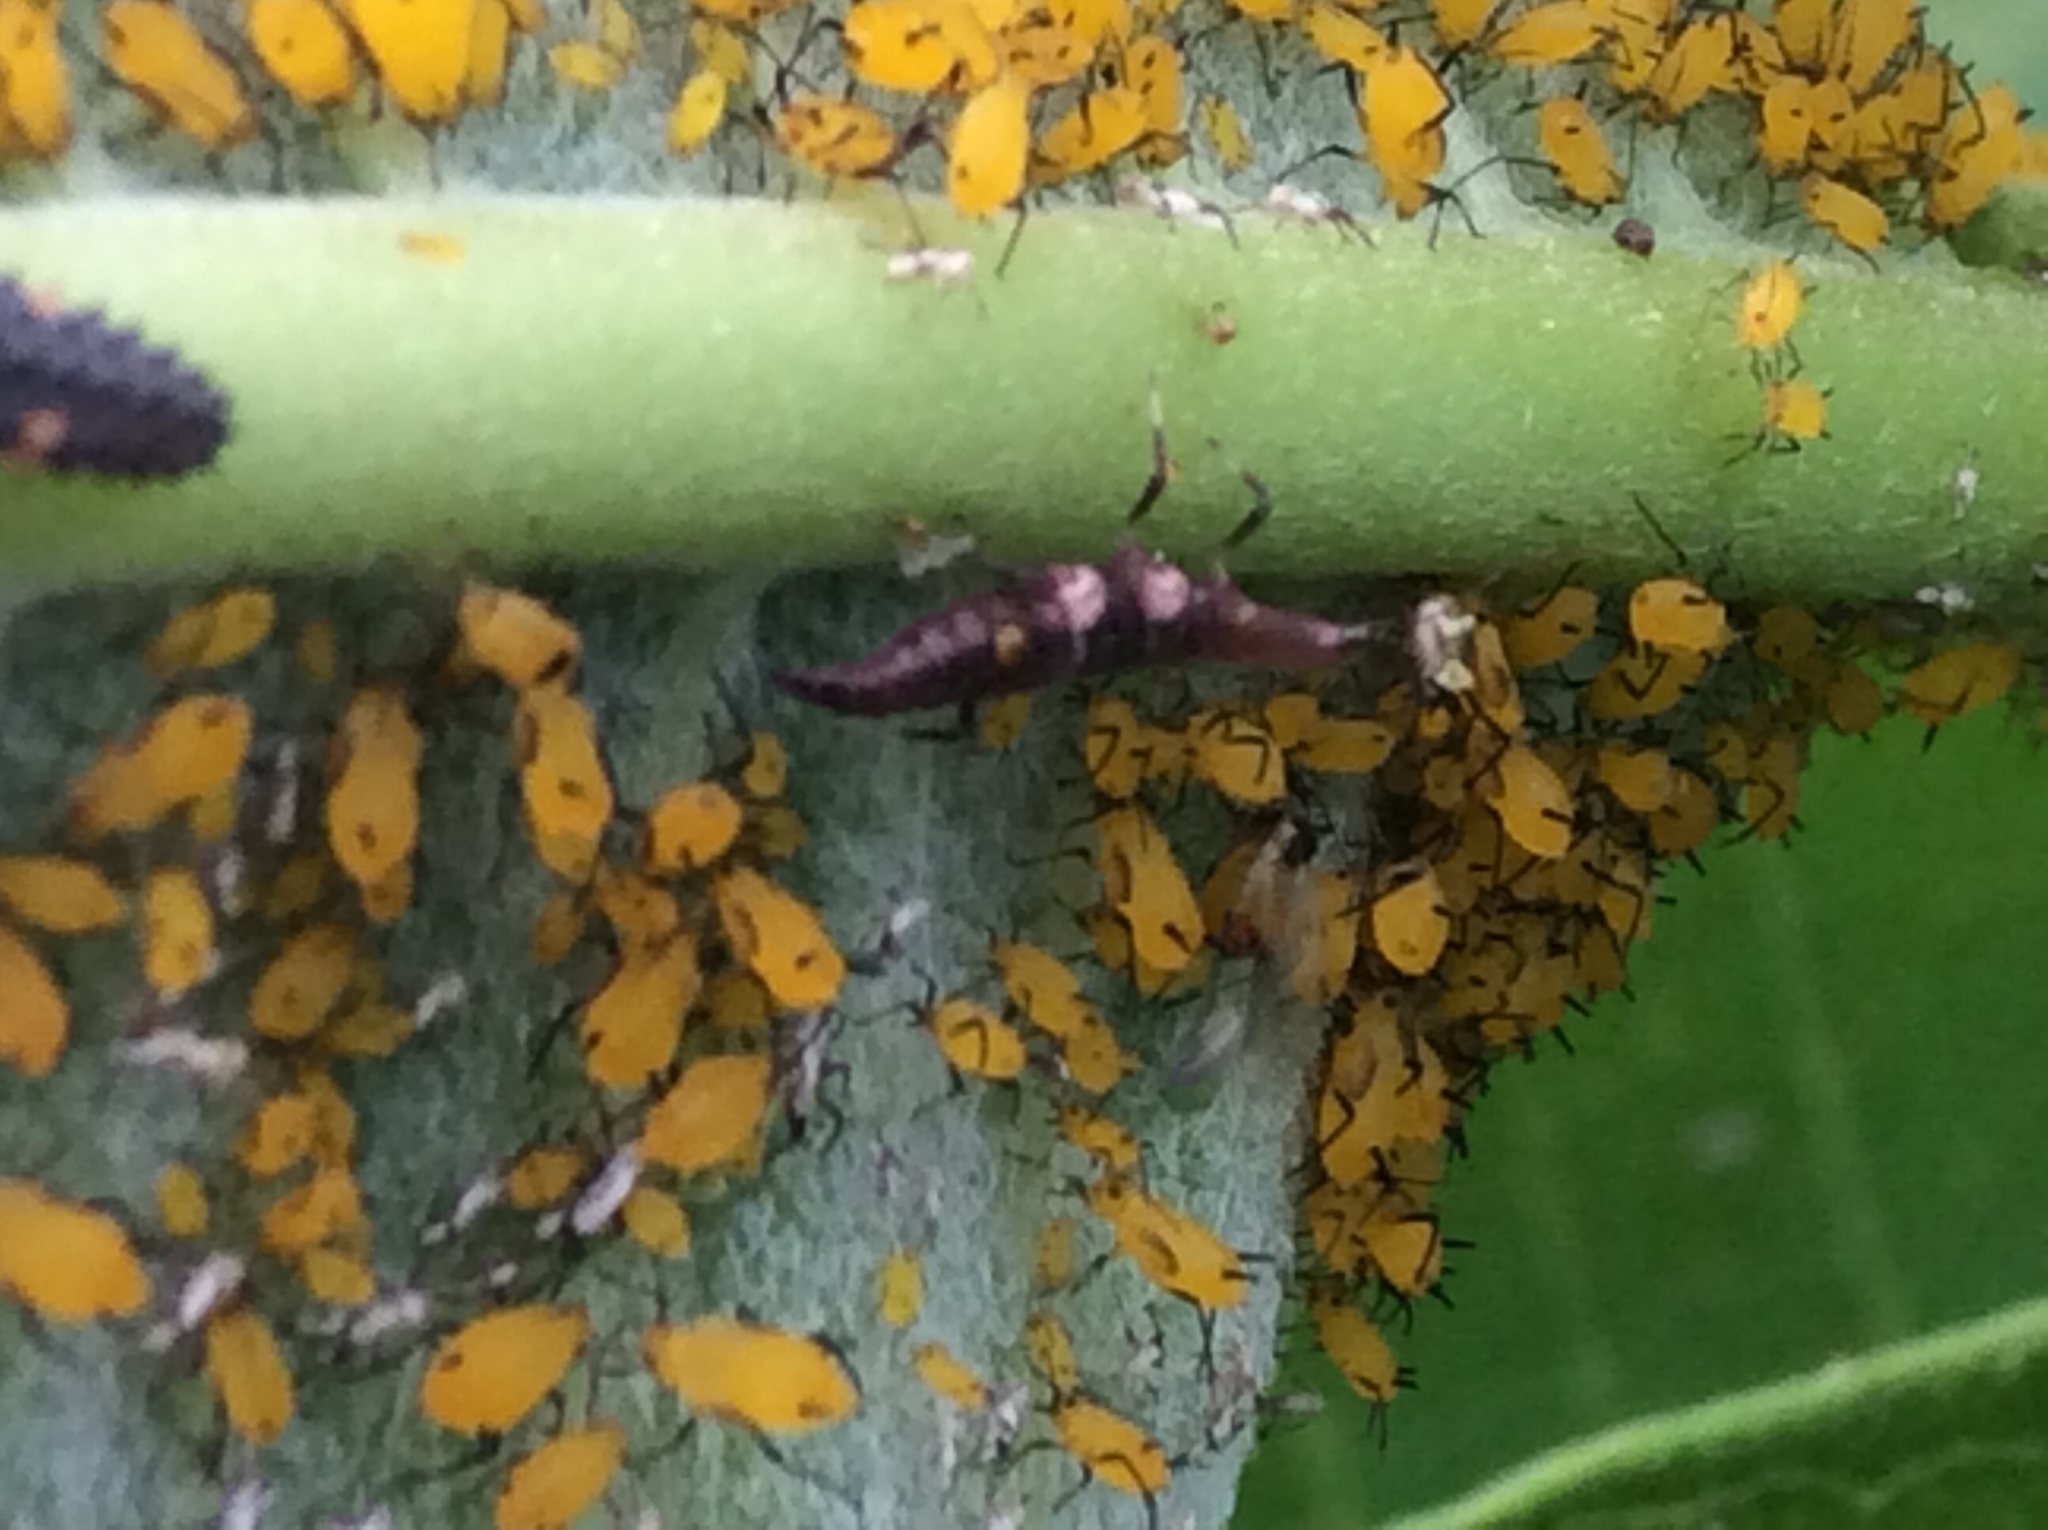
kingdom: Animalia
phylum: Arthropoda
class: Insecta
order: Hemiptera
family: Aphididae
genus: Aphis
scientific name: Aphis nerii
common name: Oleander aphid
